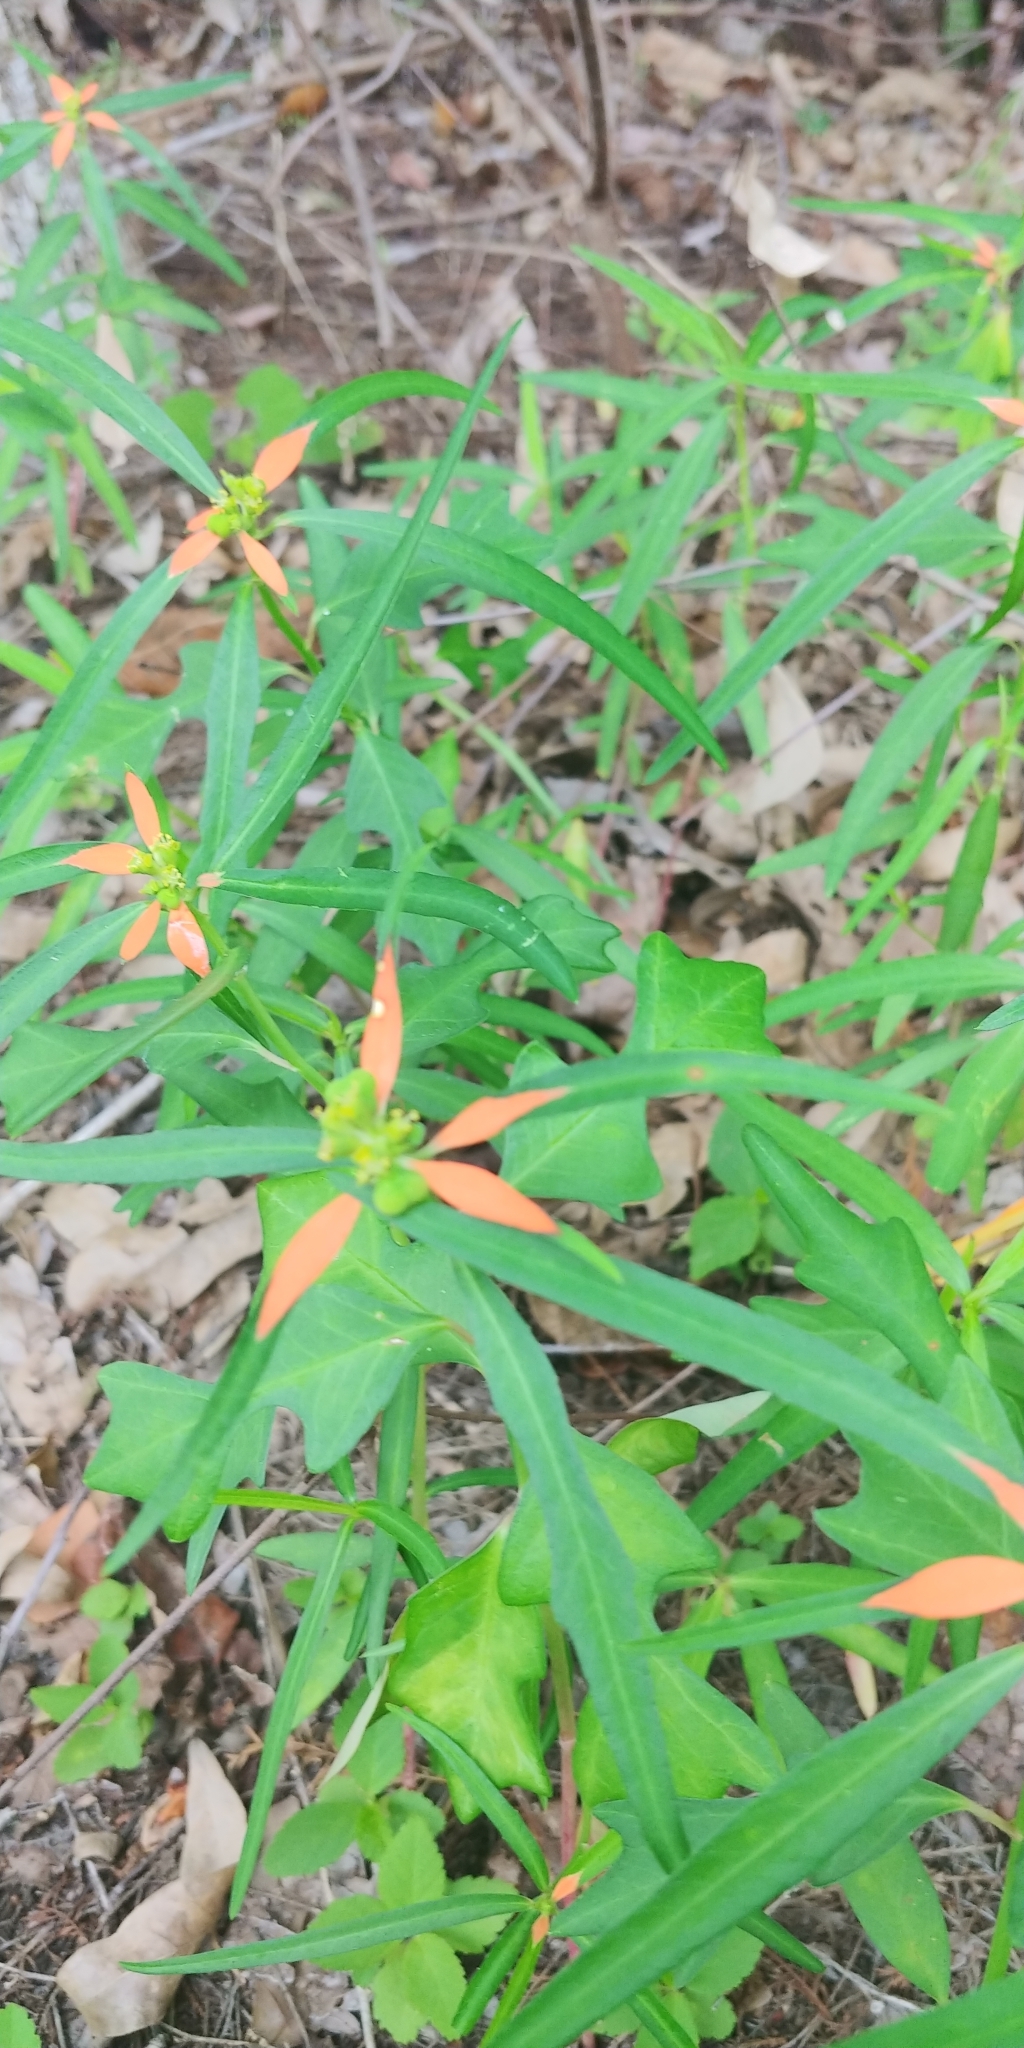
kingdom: Plantae
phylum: Tracheophyta
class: Magnoliopsida
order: Malpighiales
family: Euphorbiaceae
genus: Euphorbia
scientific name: Euphorbia heterophylla
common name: Mexican fireplant
